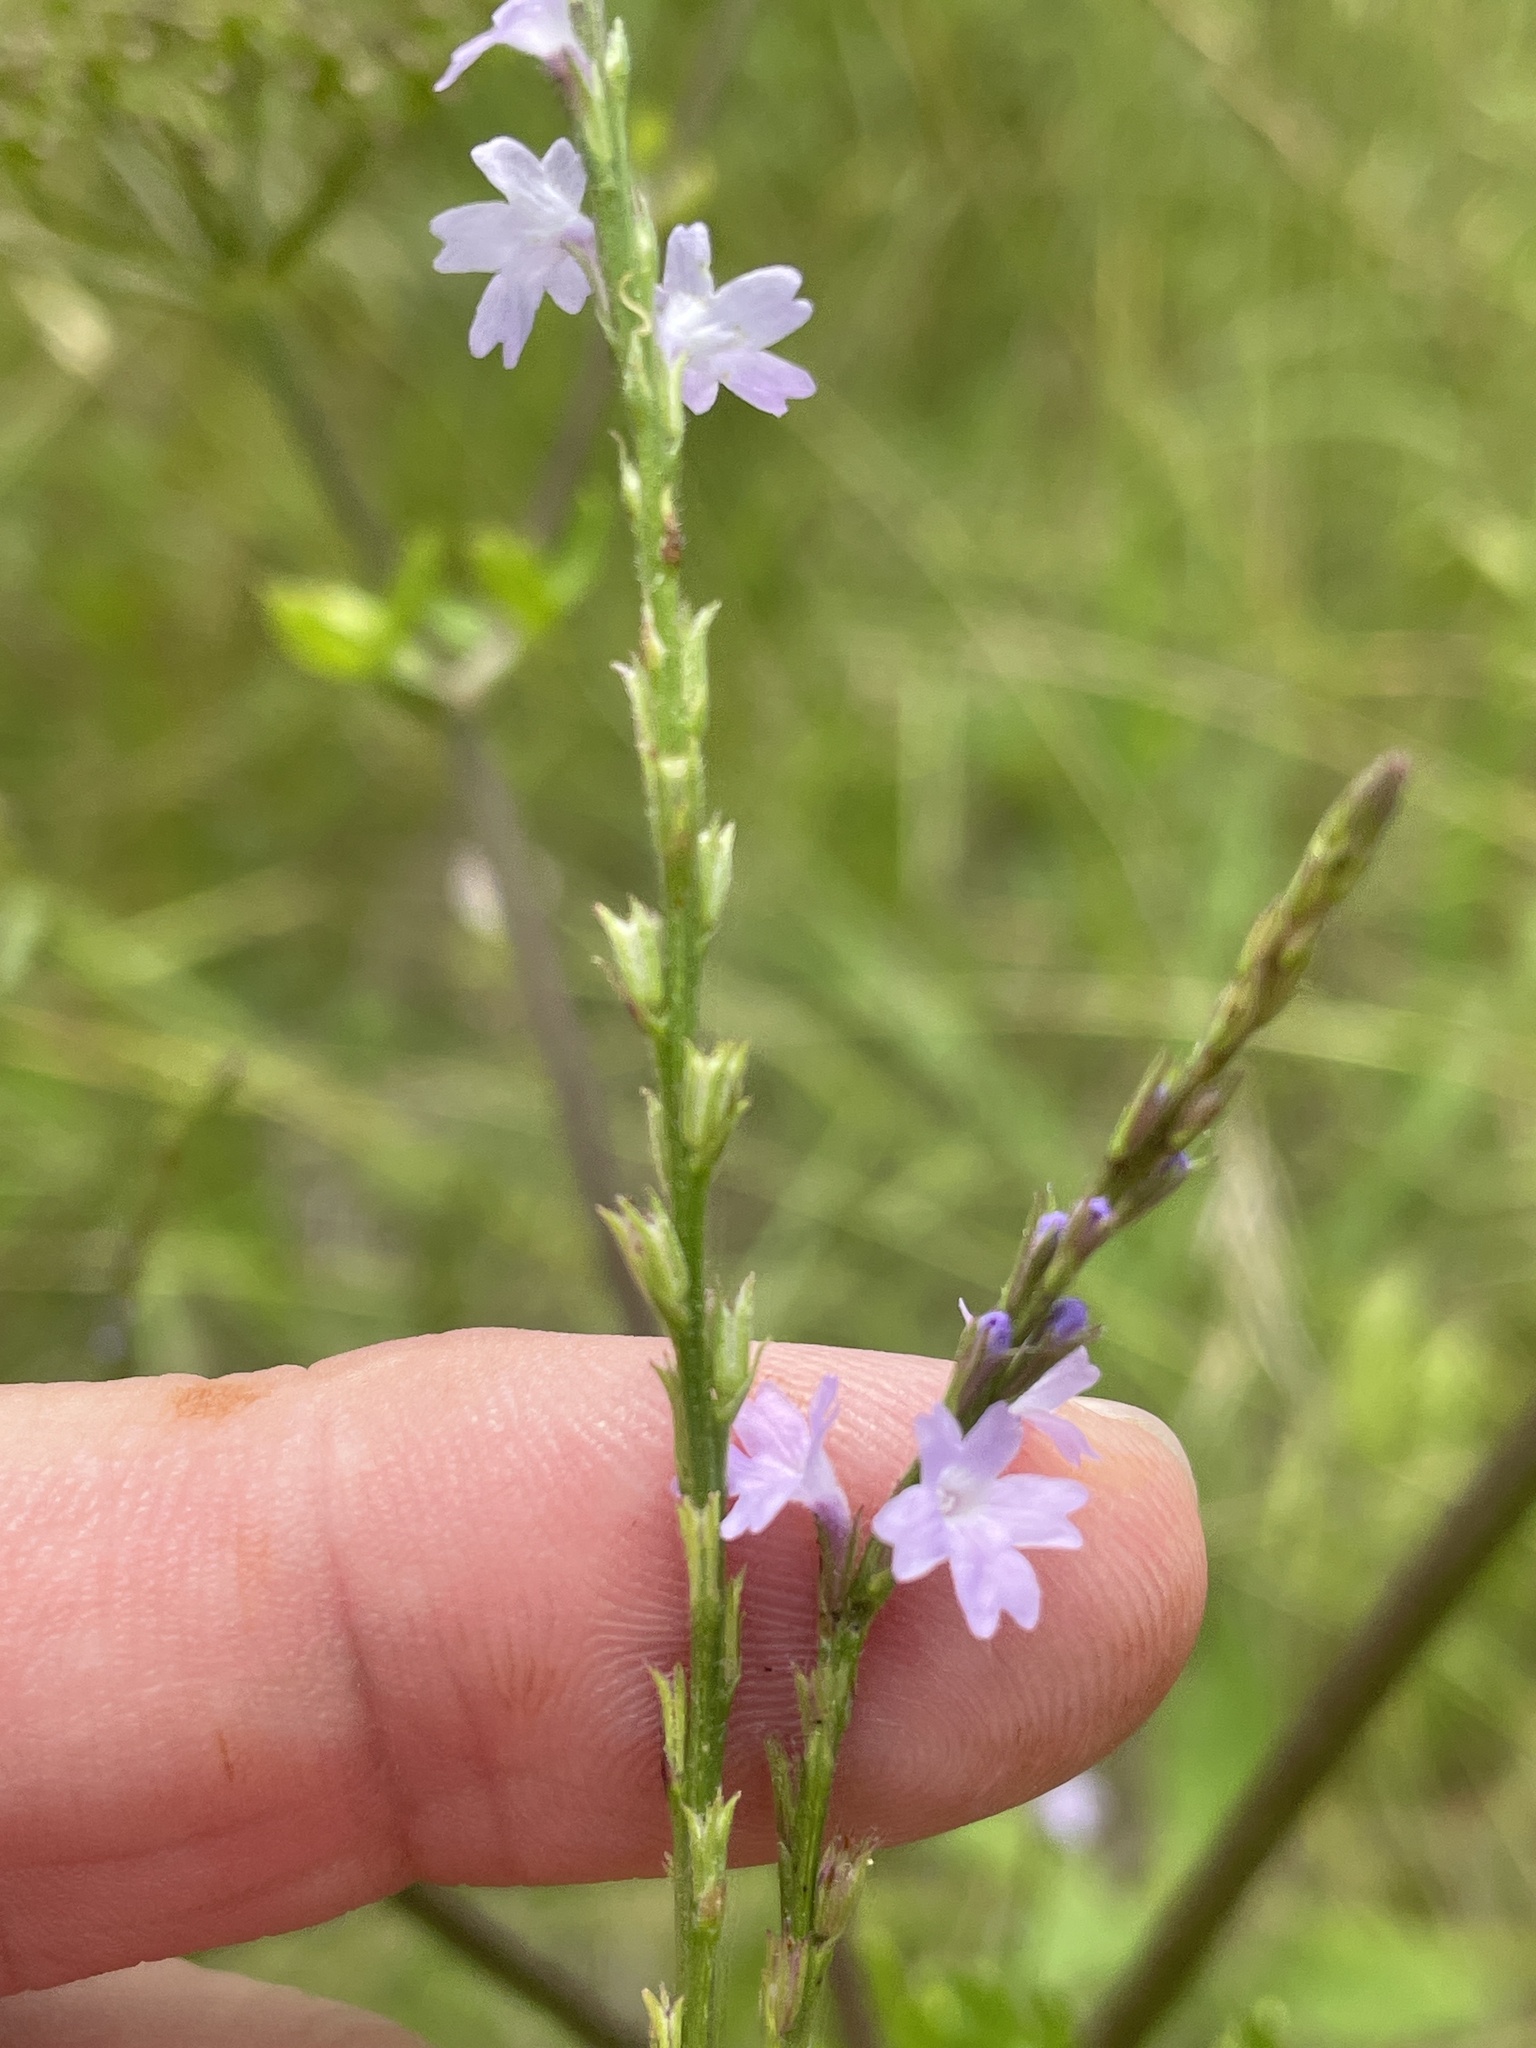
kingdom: Plantae
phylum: Tracheophyta
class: Magnoliopsida
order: Lamiales
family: Verbenaceae
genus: Verbena
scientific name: Verbena halei
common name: Texas vervain
